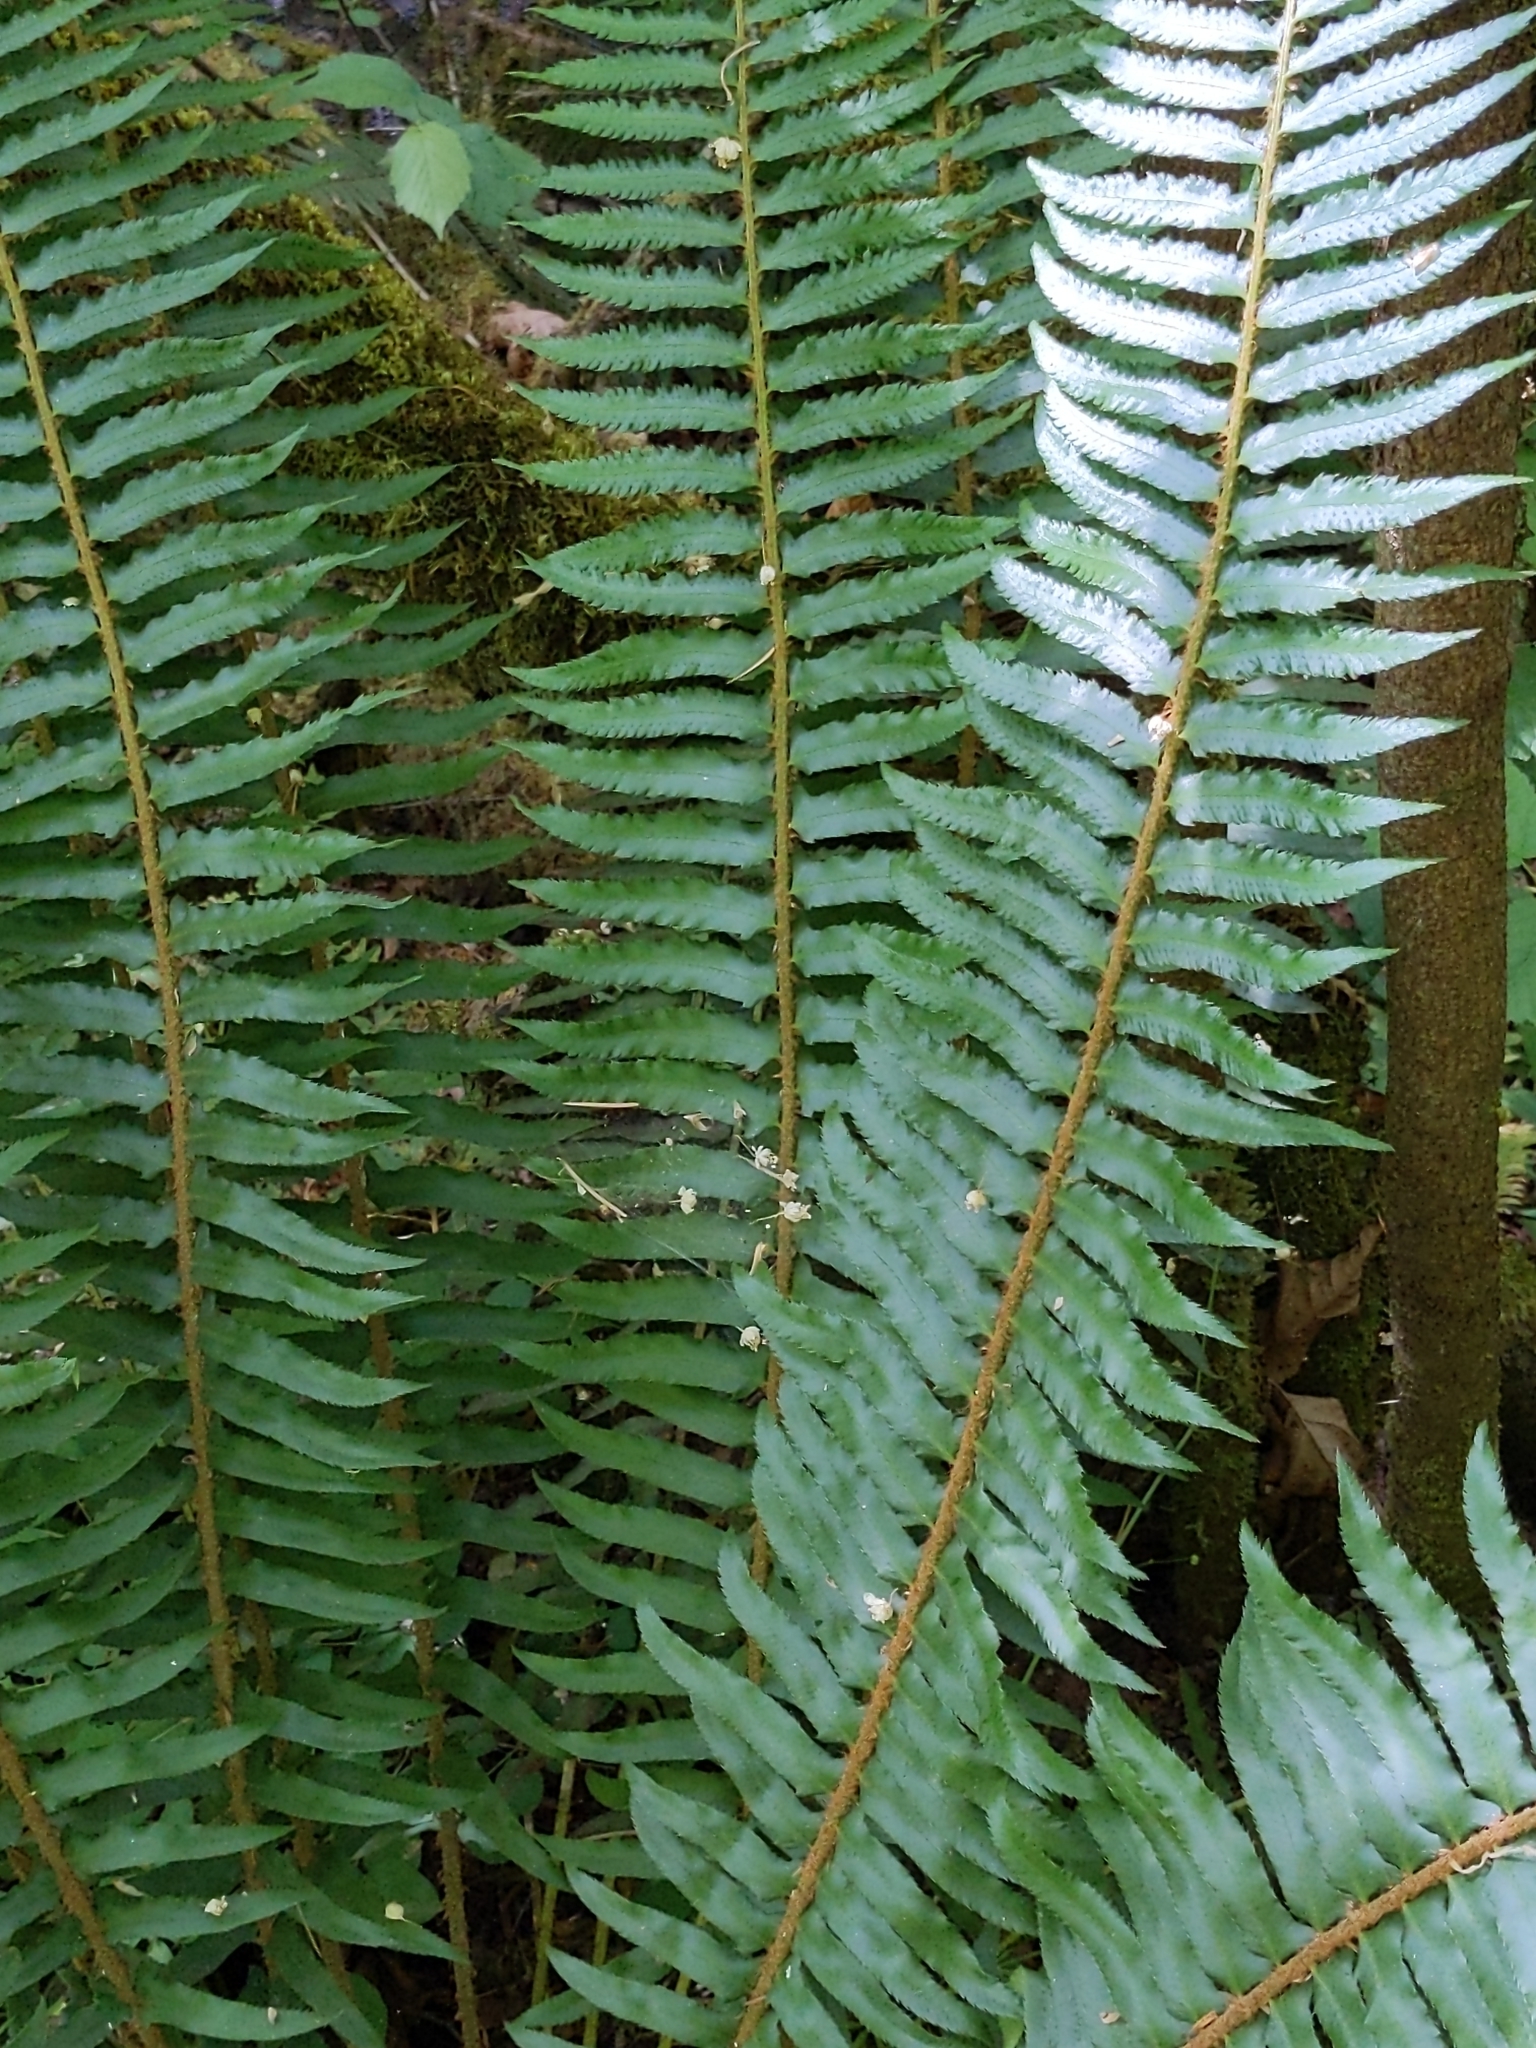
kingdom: Plantae
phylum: Tracheophyta
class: Polypodiopsida
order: Polypodiales
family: Dryopteridaceae
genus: Polystichum
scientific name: Polystichum munitum
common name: Western sword-fern
